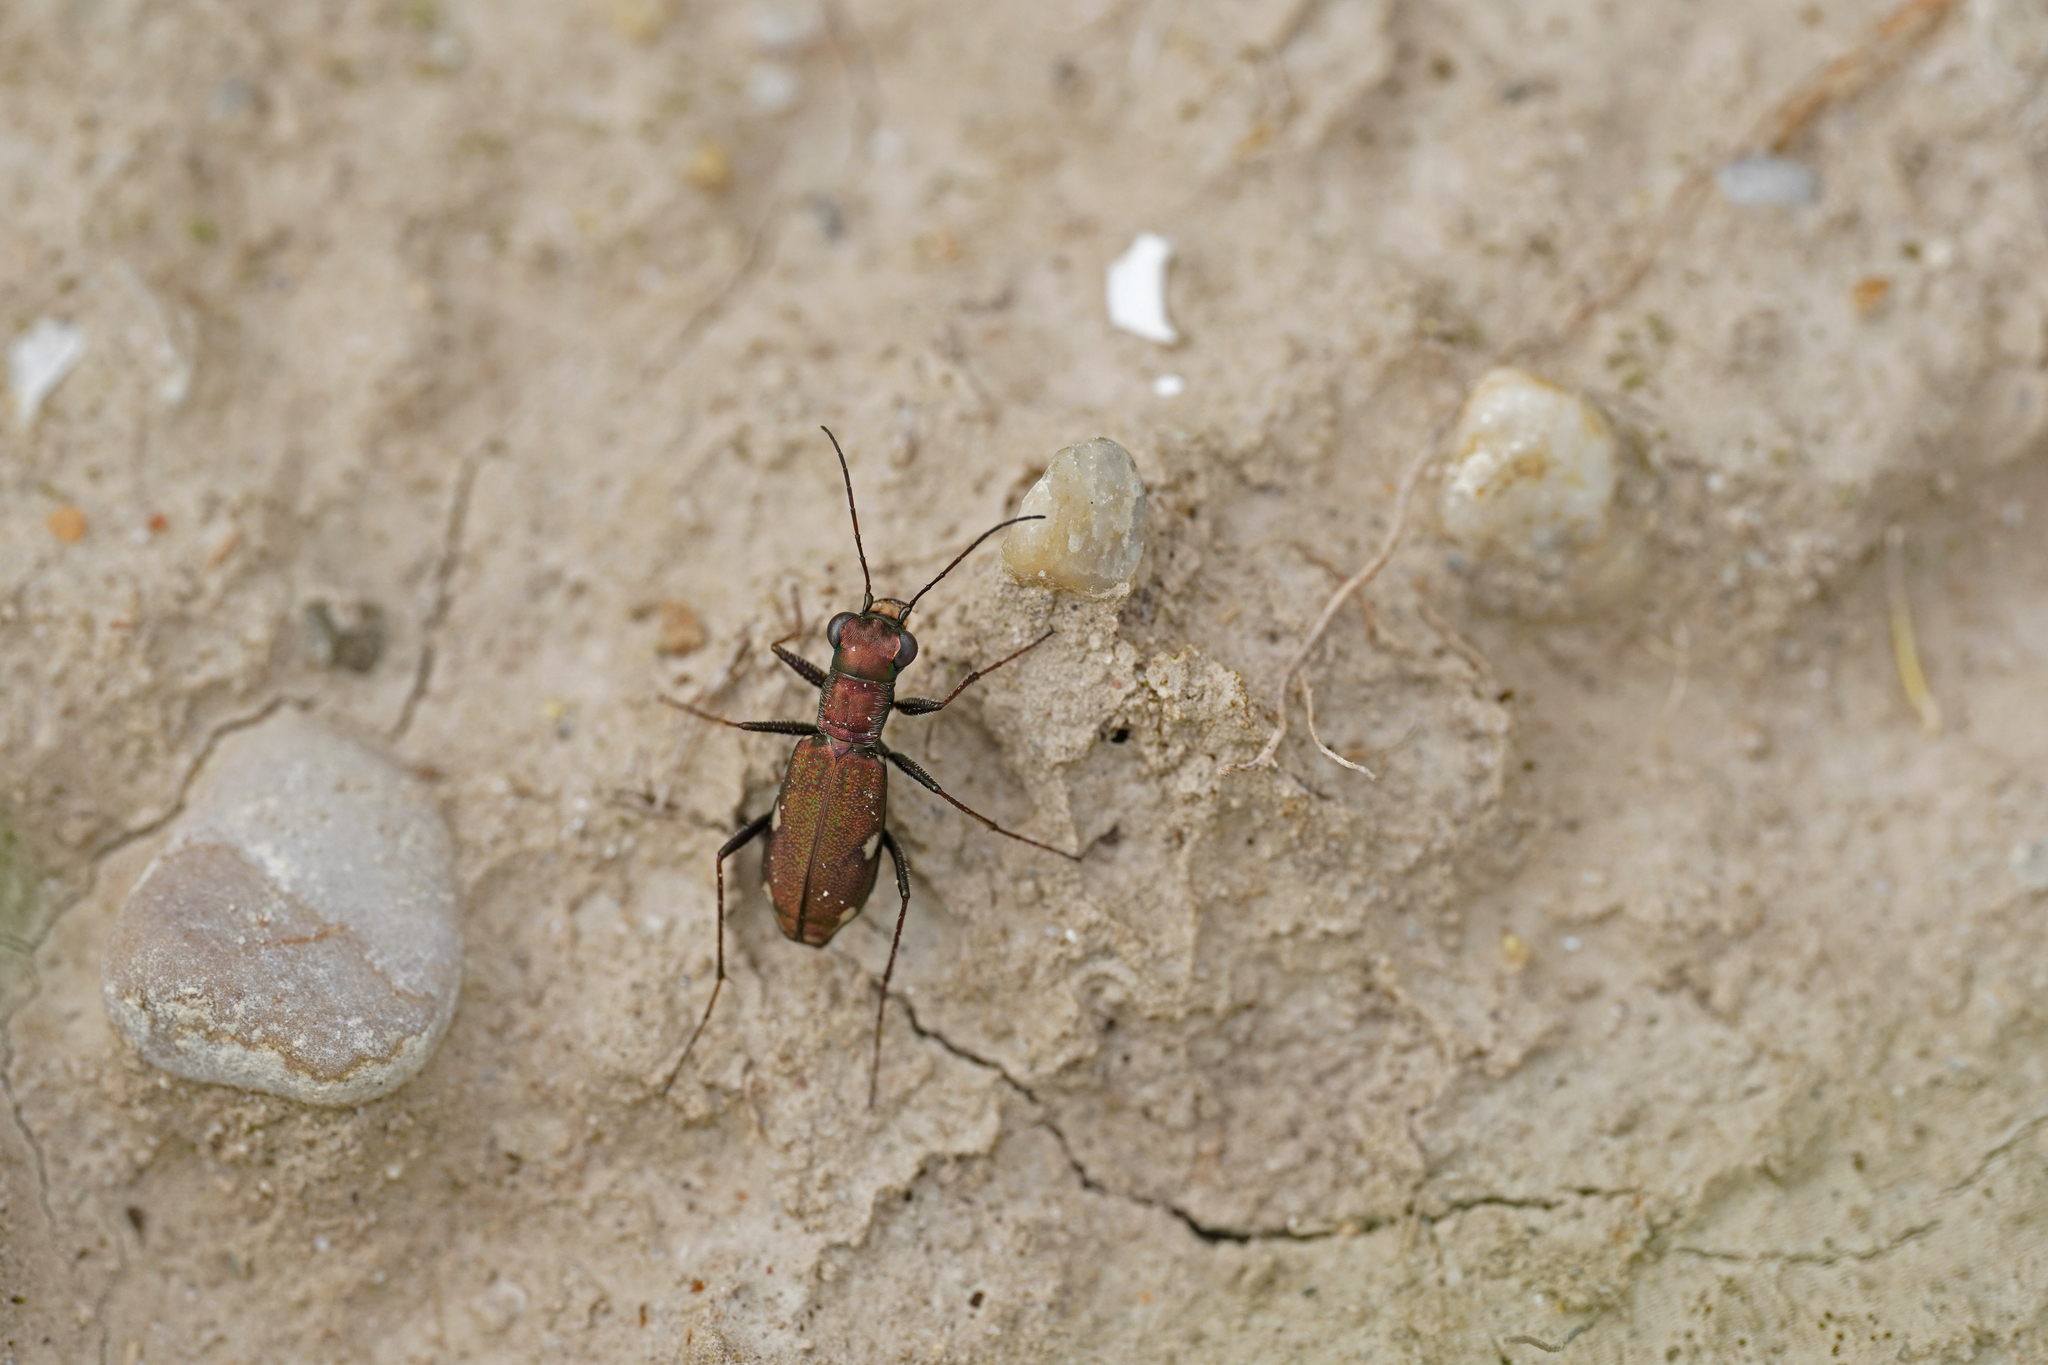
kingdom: Animalia
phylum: Arthropoda
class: Insecta
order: Coleoptera
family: Carabidae
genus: Cylindera
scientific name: Cylindera germanica
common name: Cliff tiger beetle
